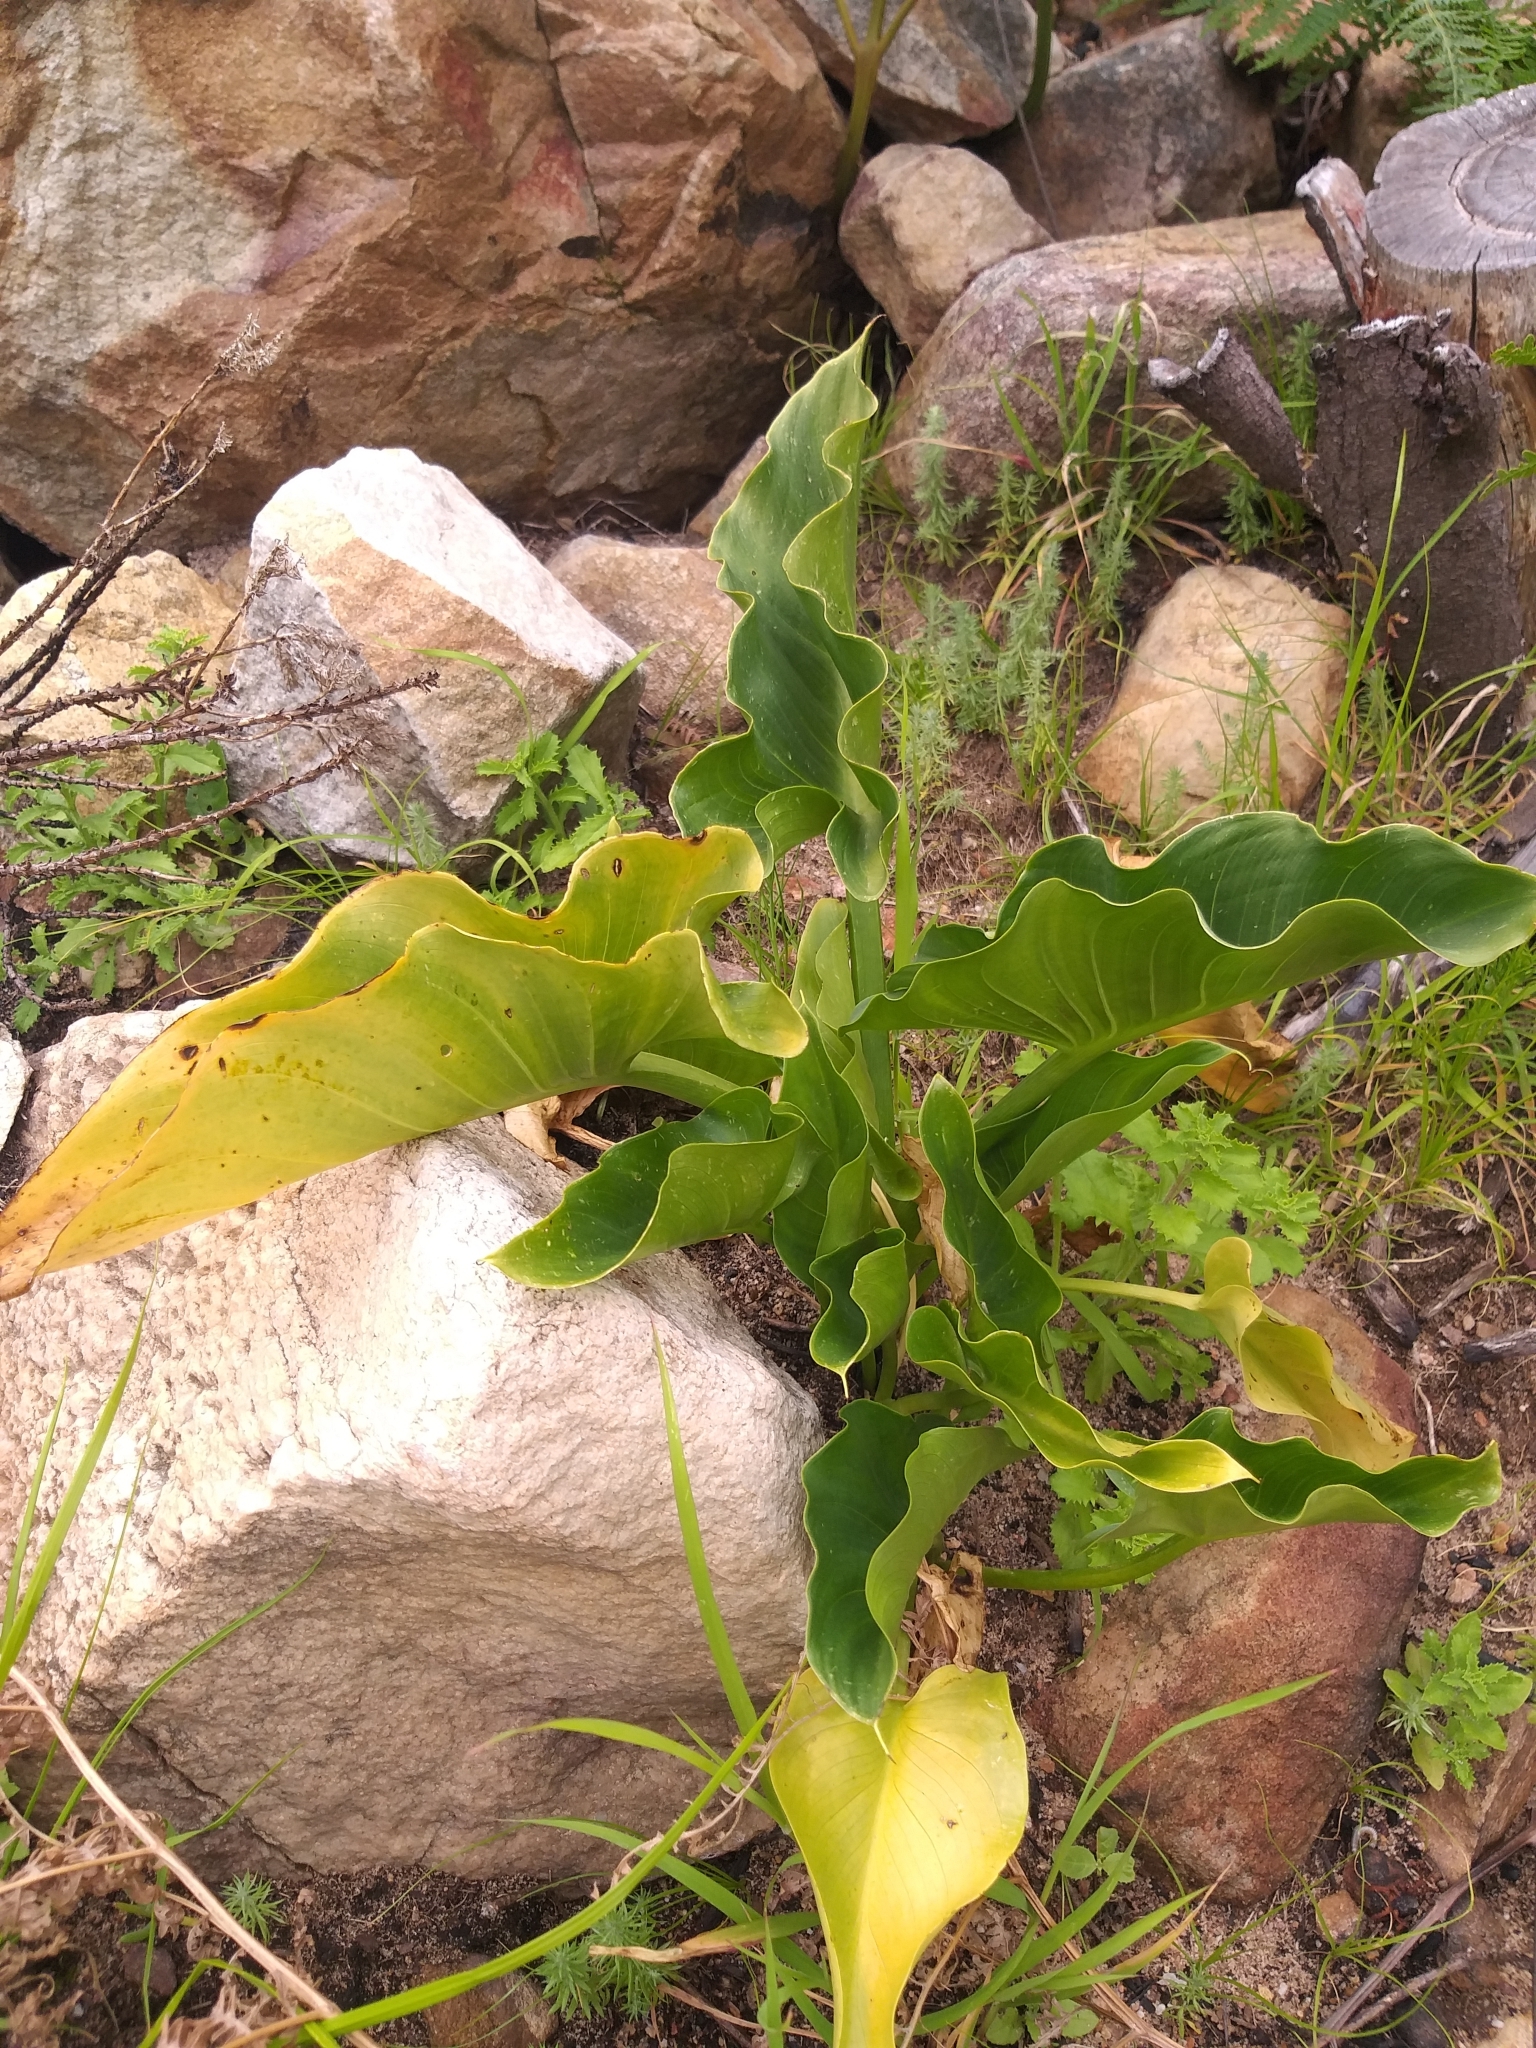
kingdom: Plantae
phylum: Tracheophyta
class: Liliopsida
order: Alismatales
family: Araceae
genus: Zantedeschia
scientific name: Zantedeschia aethiopica
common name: Altar-lily
